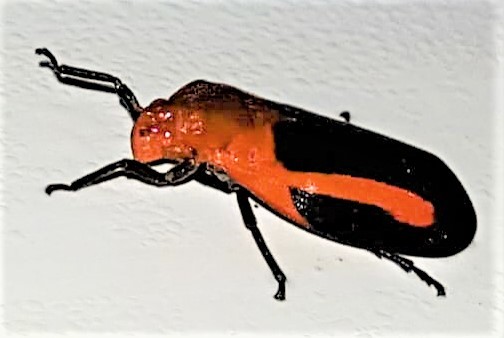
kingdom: Animalia
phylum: Arthropoda
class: Insecta
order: Hemiptera
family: Cercopidae
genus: Laccogrypota
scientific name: Laccogrypota valida
